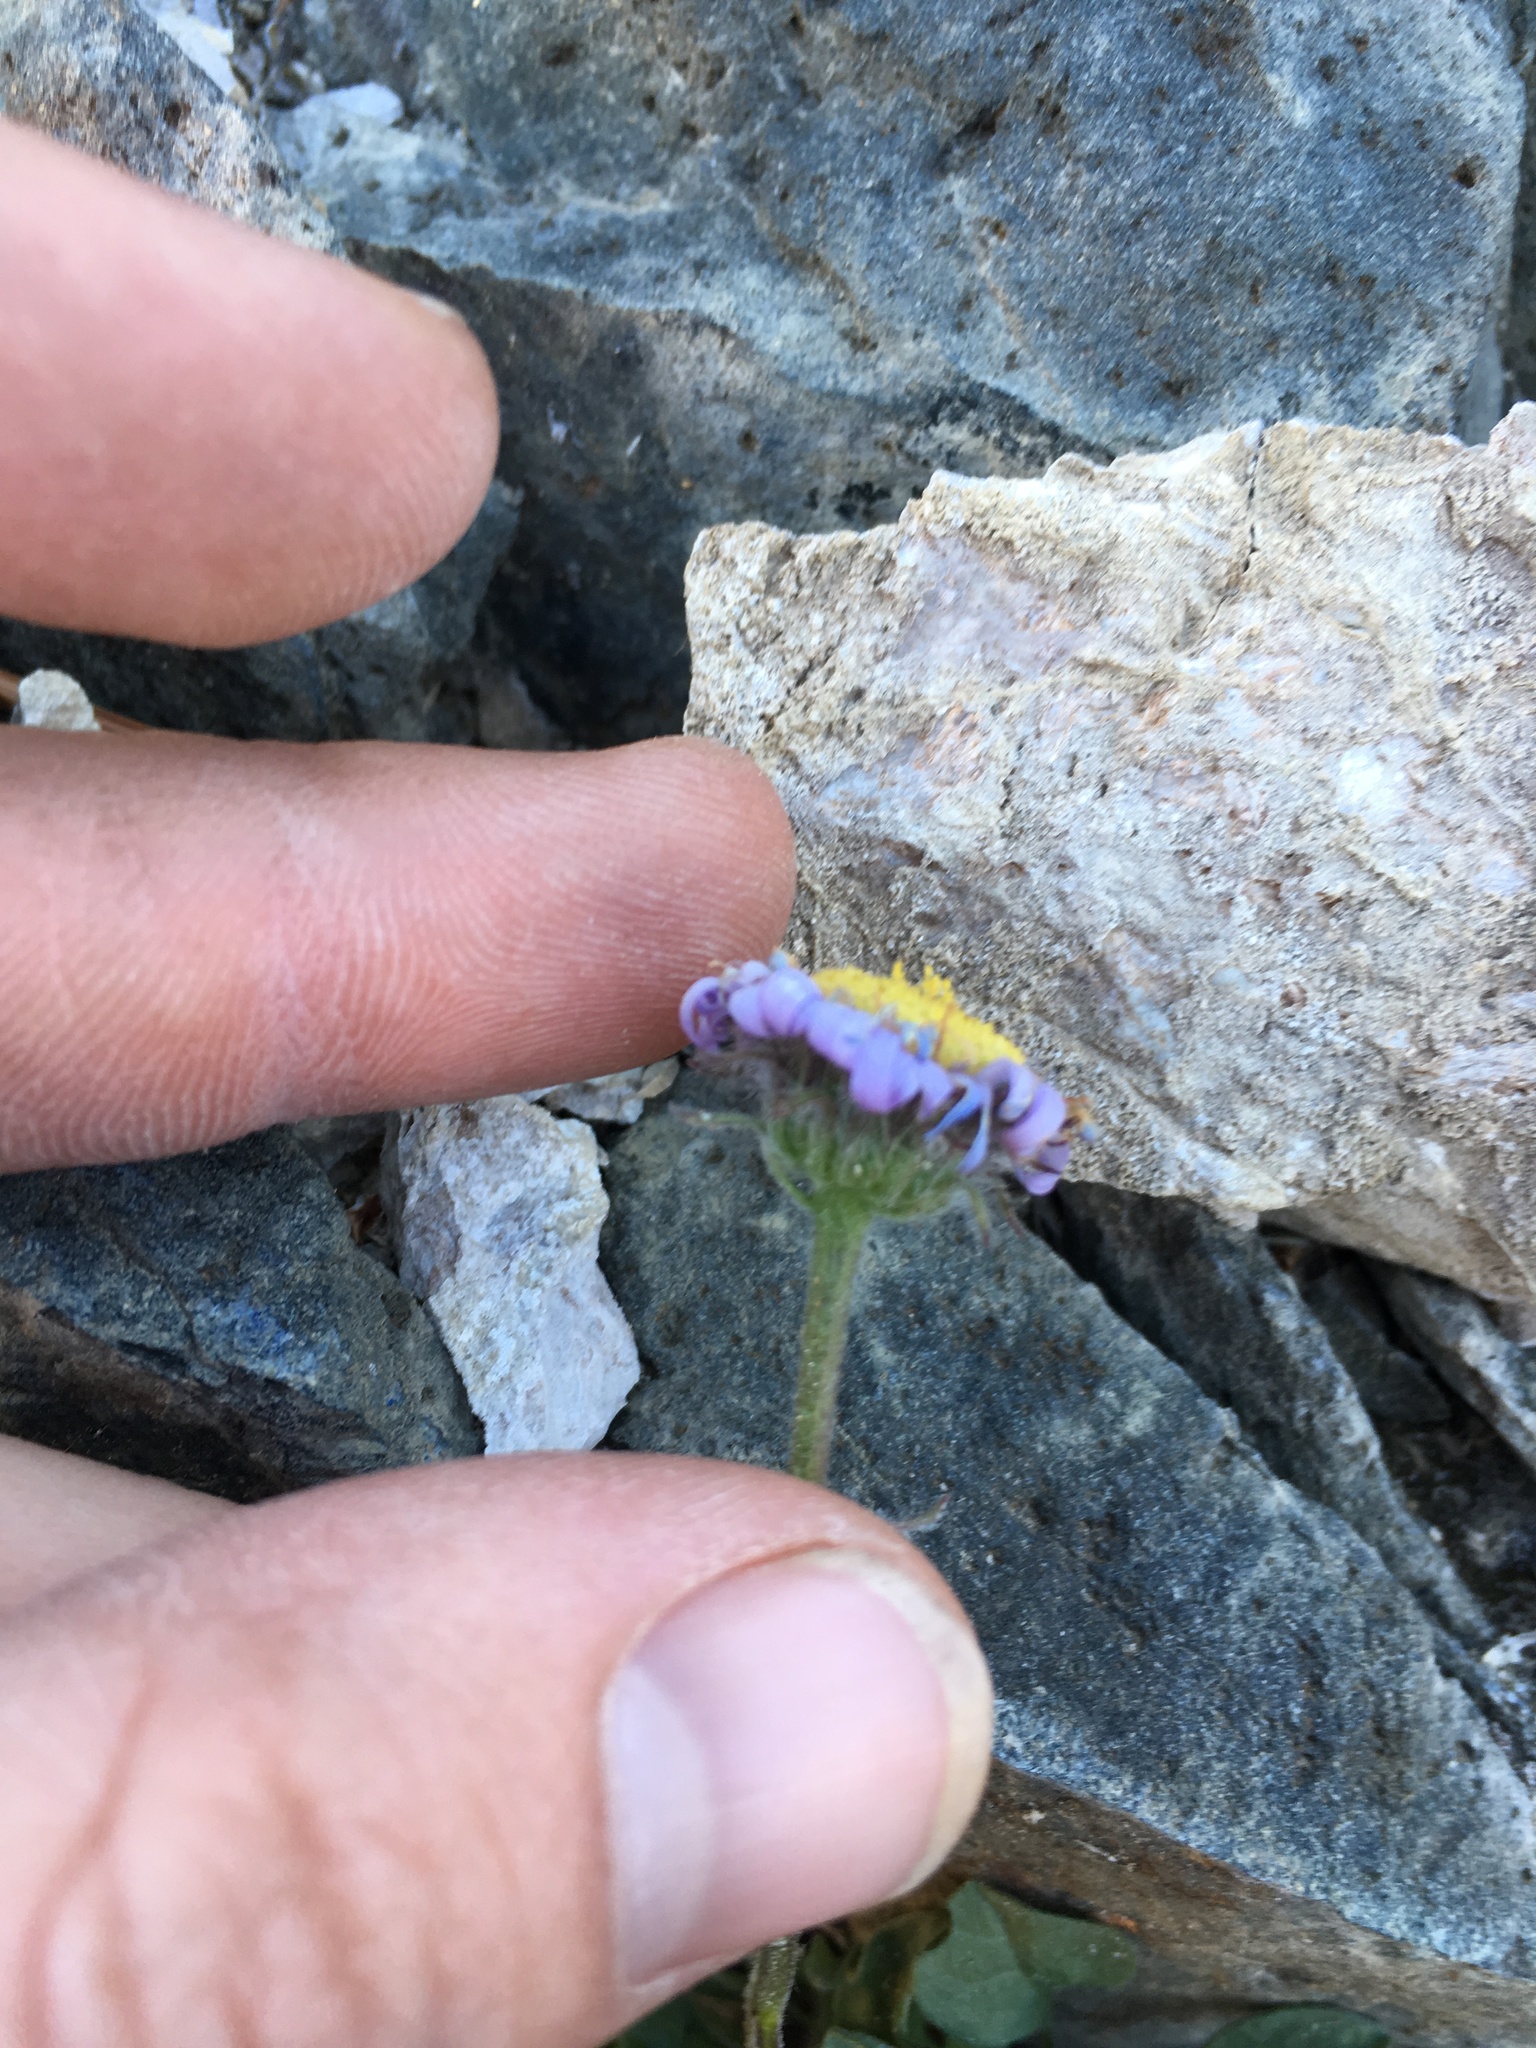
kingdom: Plantae
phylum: Tracheophyta
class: Magnoliopsida
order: Asterales
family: Asteraceae
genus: Erigeron
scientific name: Erigeron algidus
